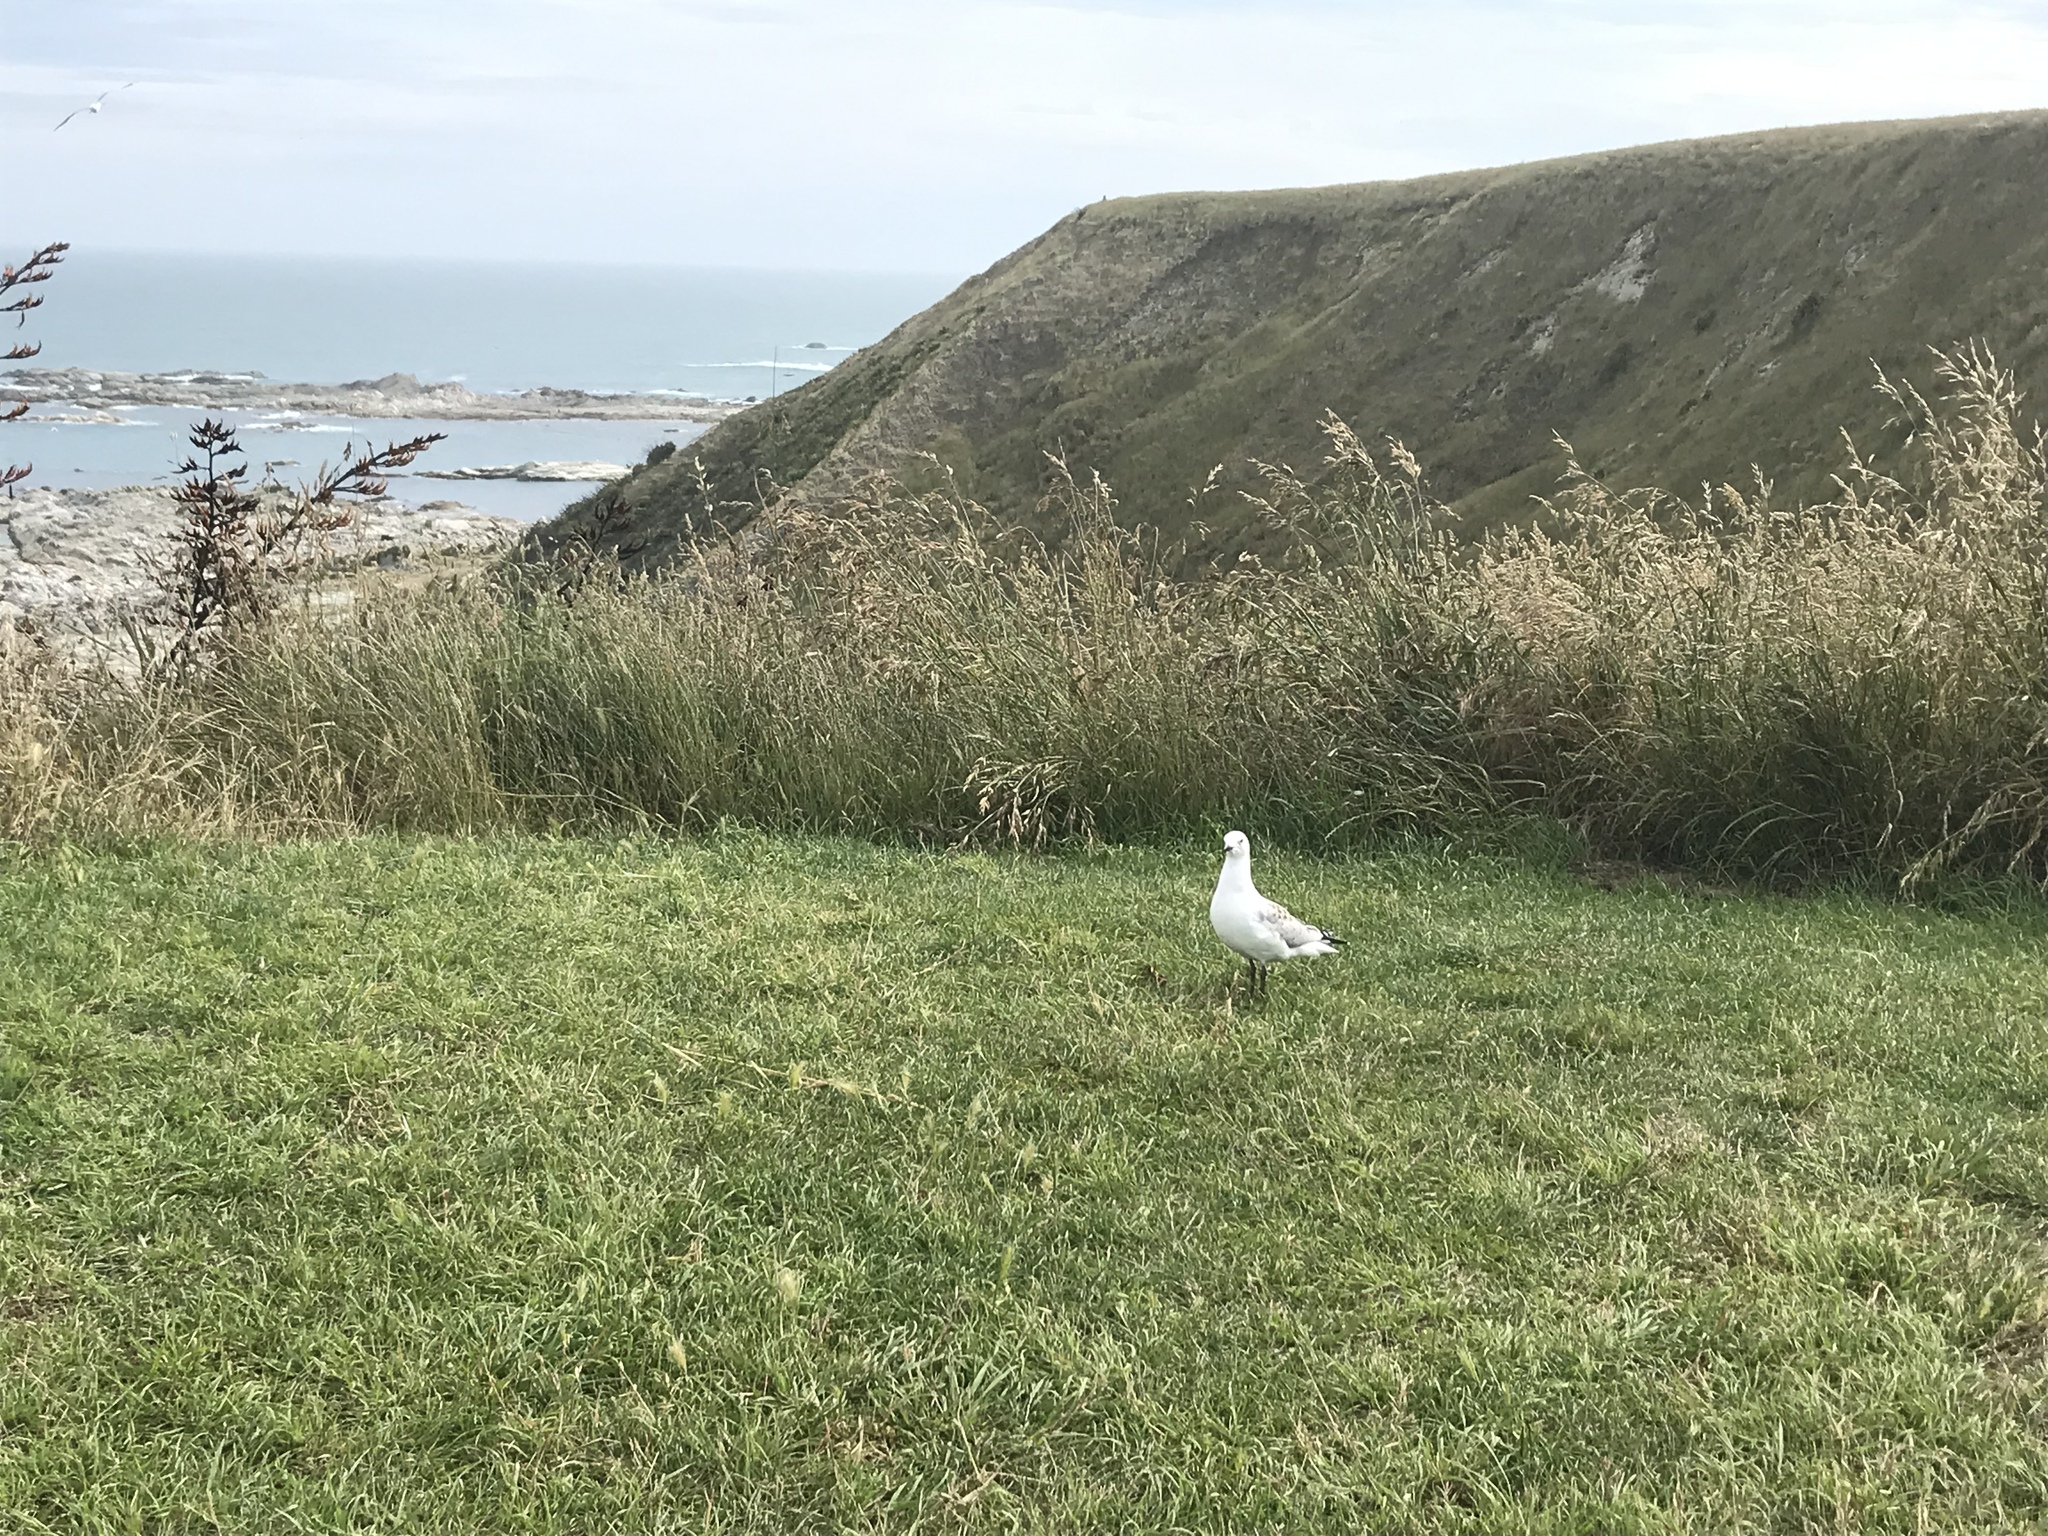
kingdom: Animalia
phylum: Chordata
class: Aves
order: Charadriiformes
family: Laridae
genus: Chroicocephalus
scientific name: Chroicocephalus novaehollandiae
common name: Silver gull
